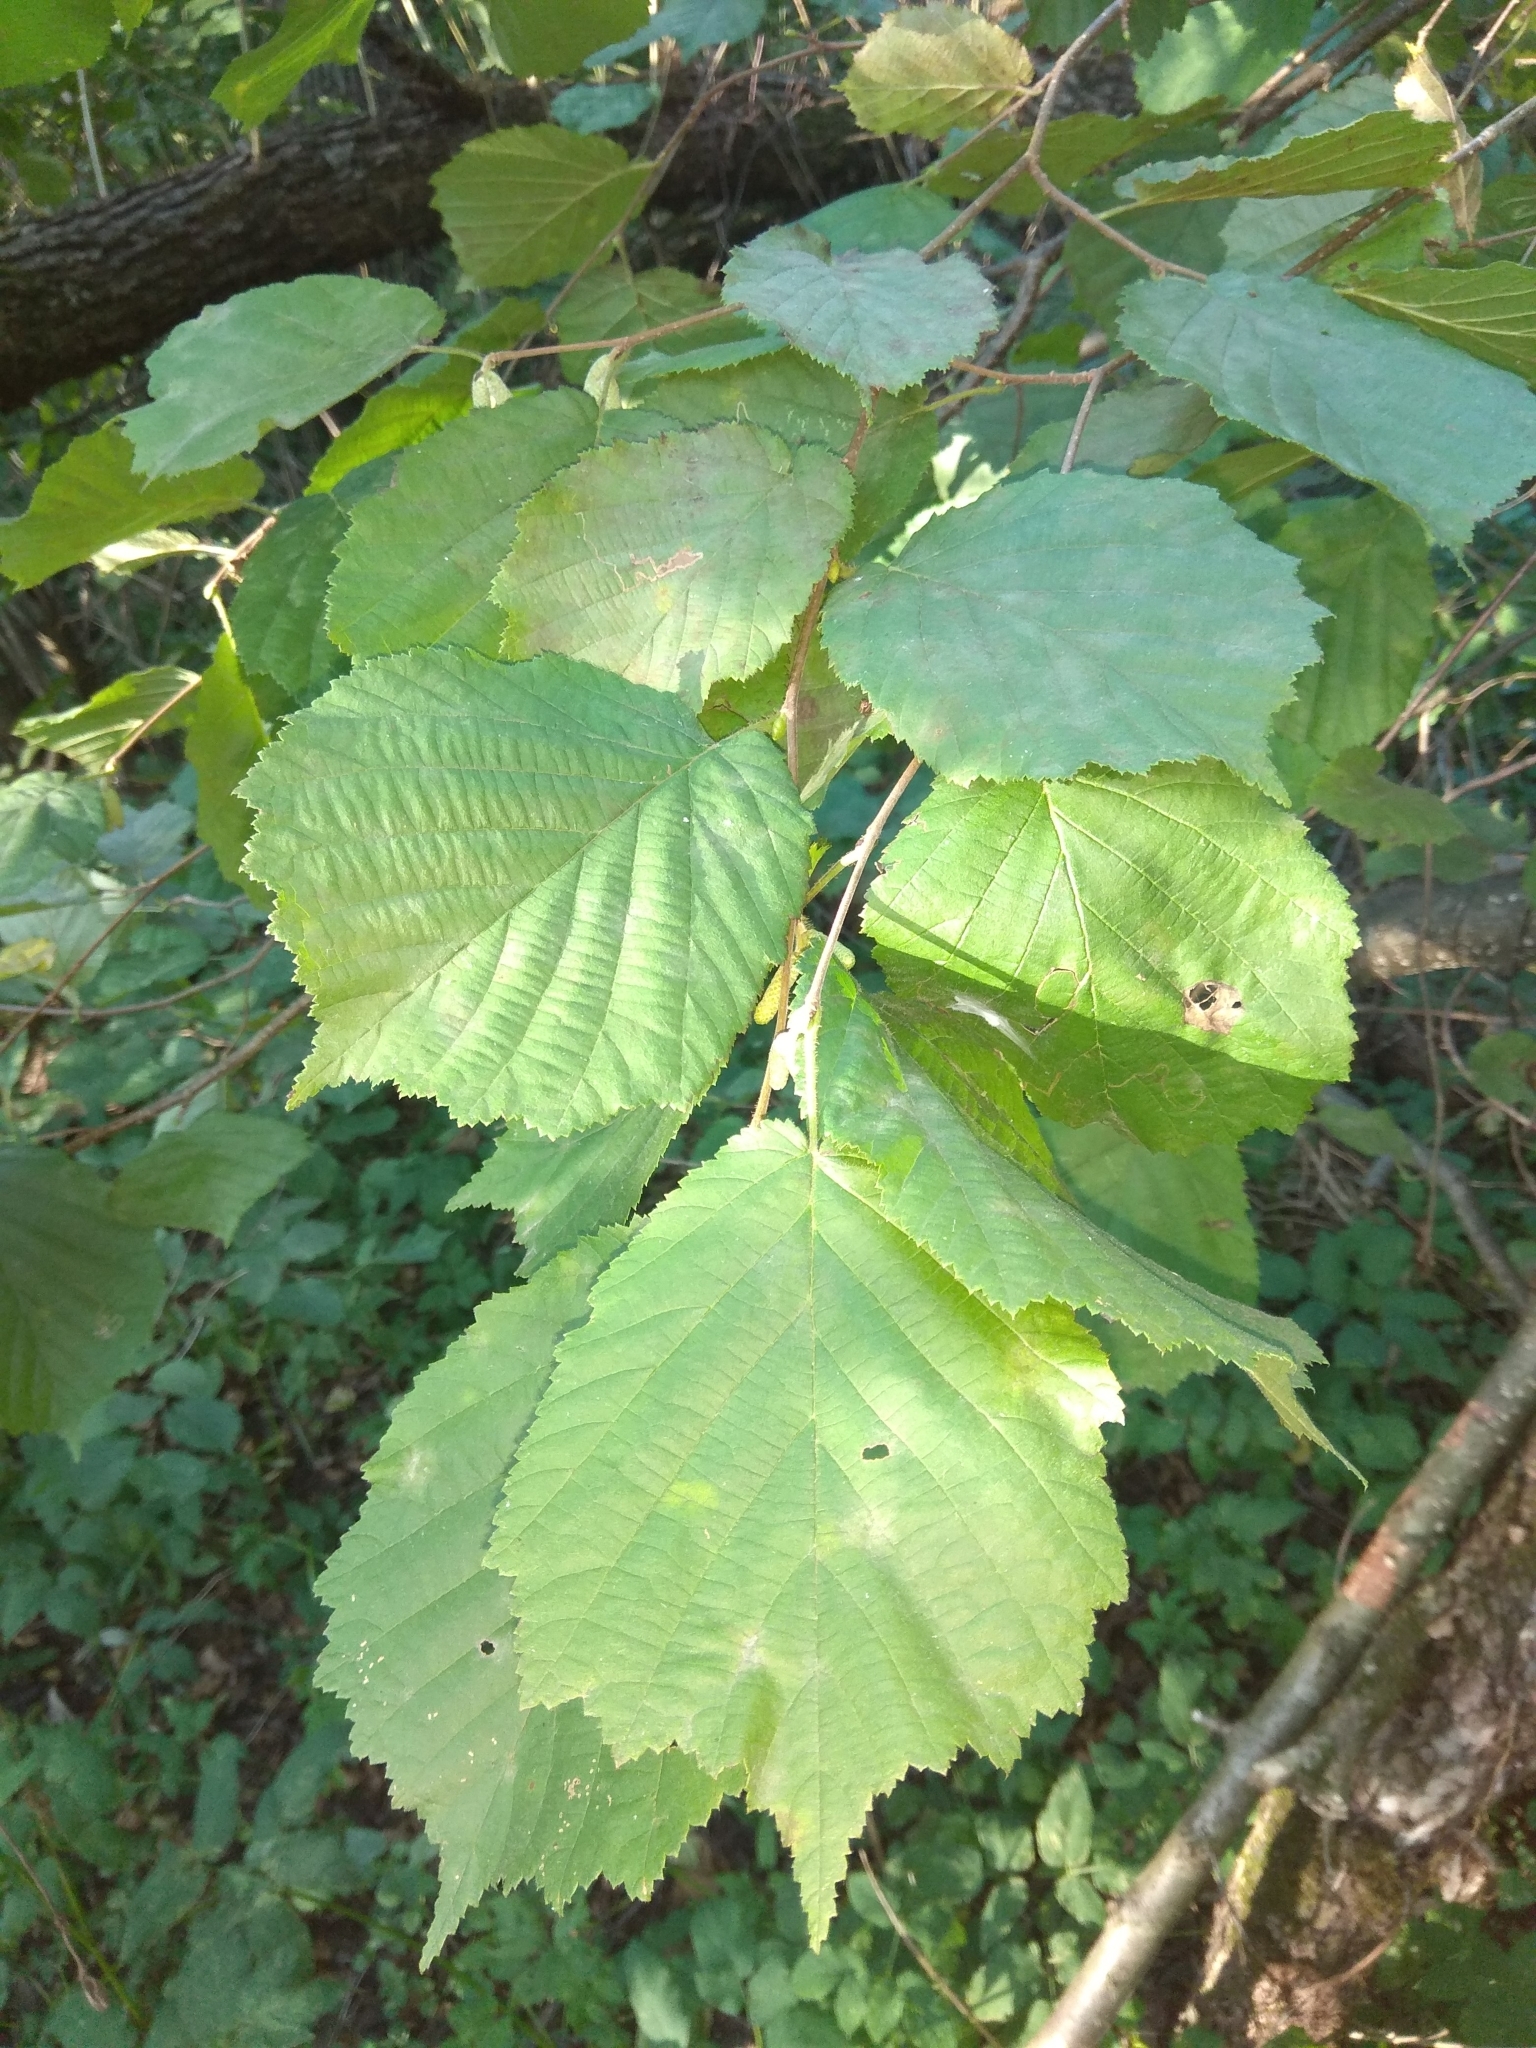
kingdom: Plantae
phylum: Tracheophyta
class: Magnoliopsida
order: Fagales
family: Betulaceae
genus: Corylus
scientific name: Corylus avellana
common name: European hazel
